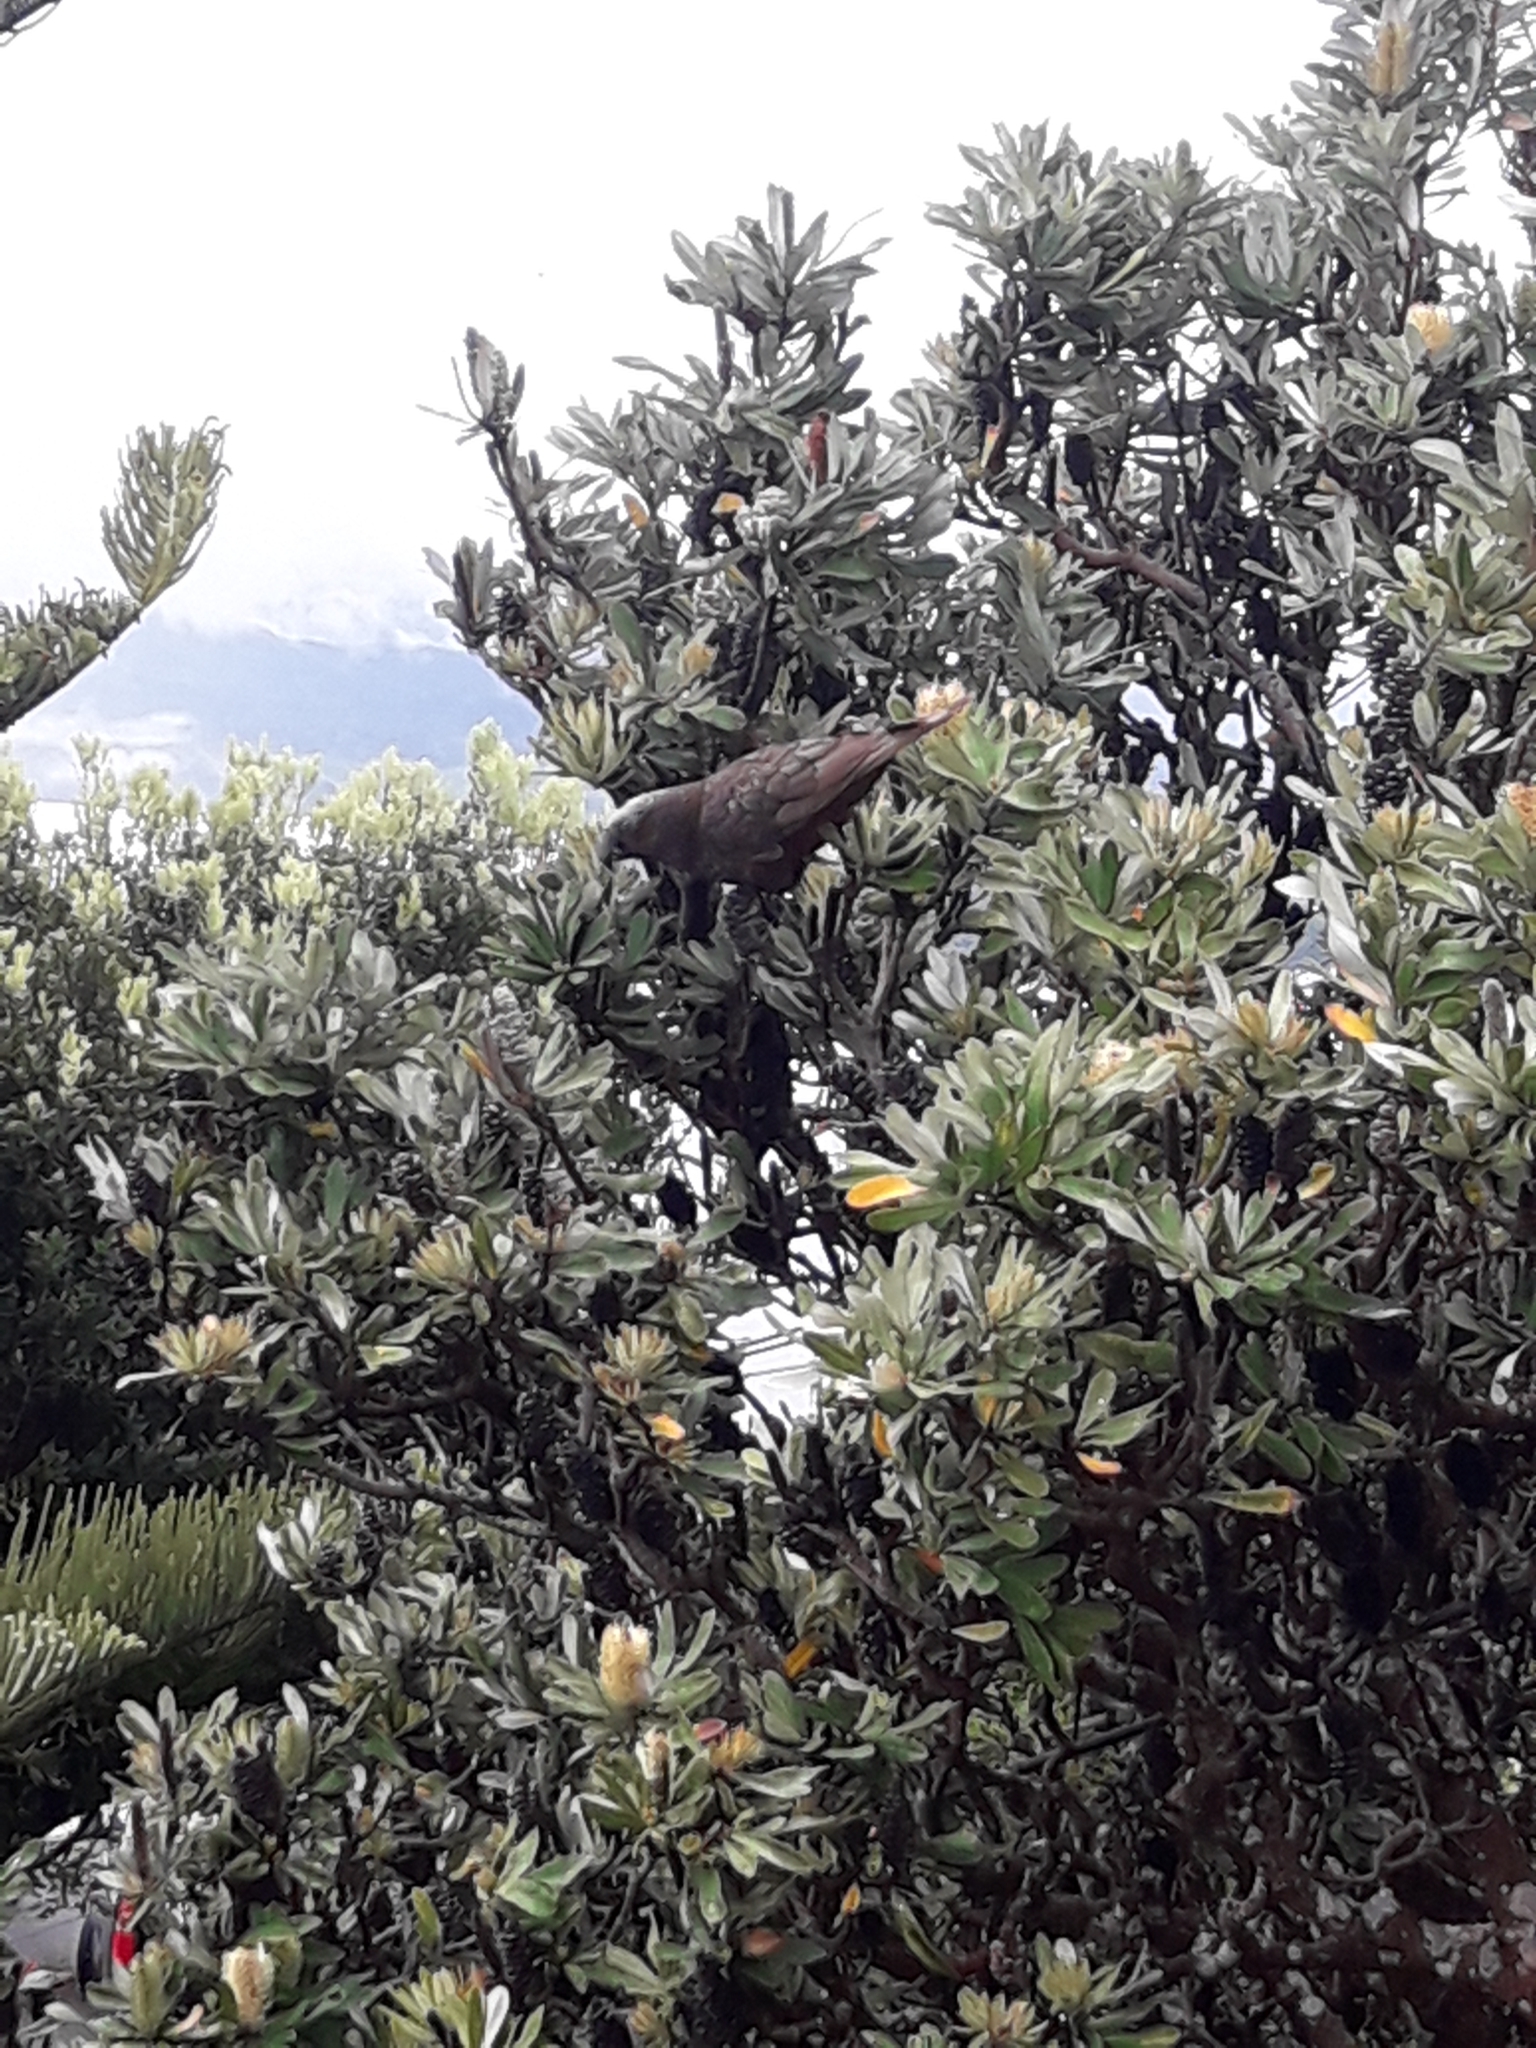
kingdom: Animalia
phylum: Chordata
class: Aves
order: Psittaciformes
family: Psittacidae
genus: Nestor
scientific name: Nestor meridionalis
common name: New zealand kaka
